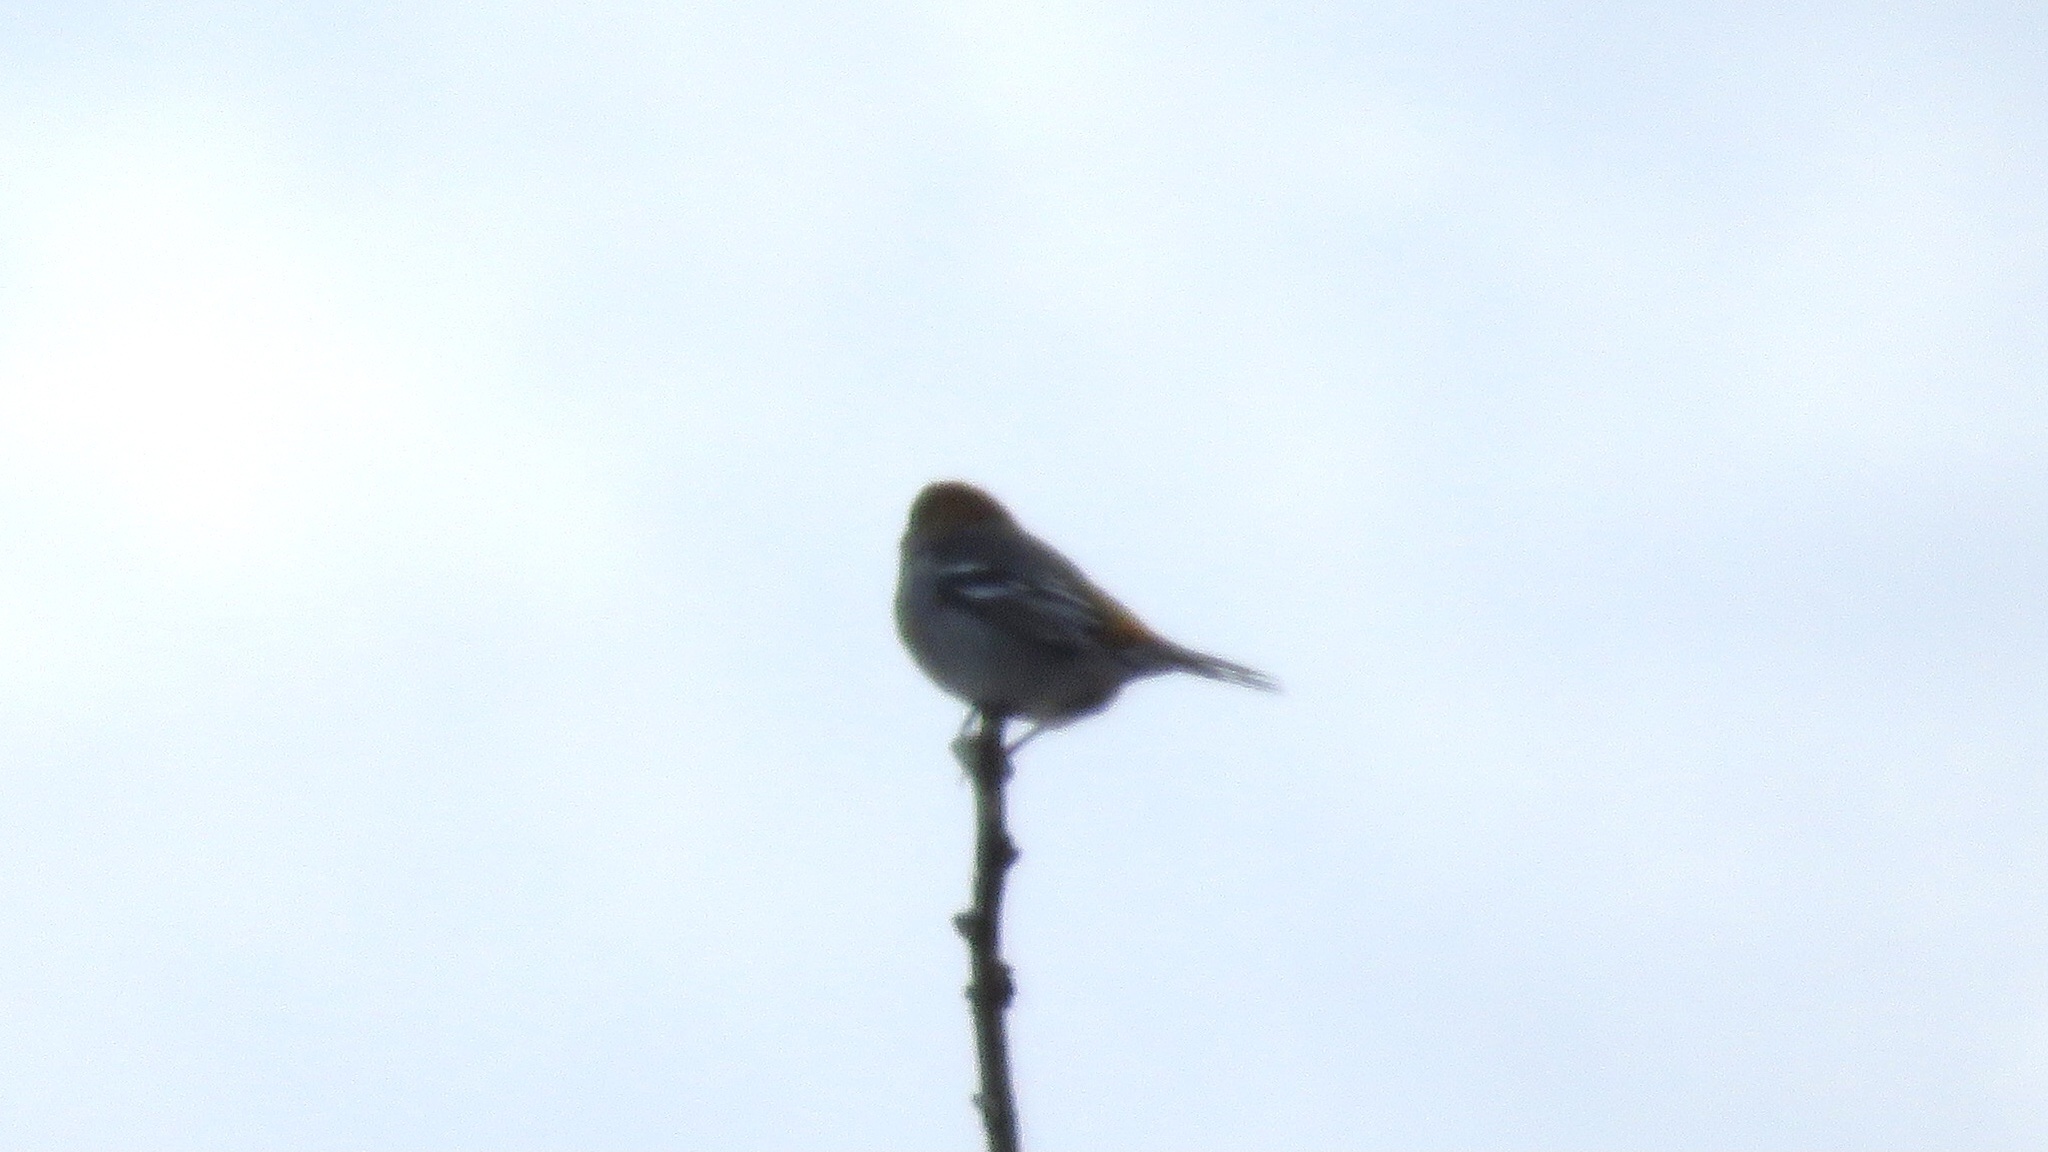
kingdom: Animalia
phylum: Chordata
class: Aves
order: Passeriformes
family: Fringillidae
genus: Pinicola
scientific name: Pinicola enucleator
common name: Pine grosbeak
